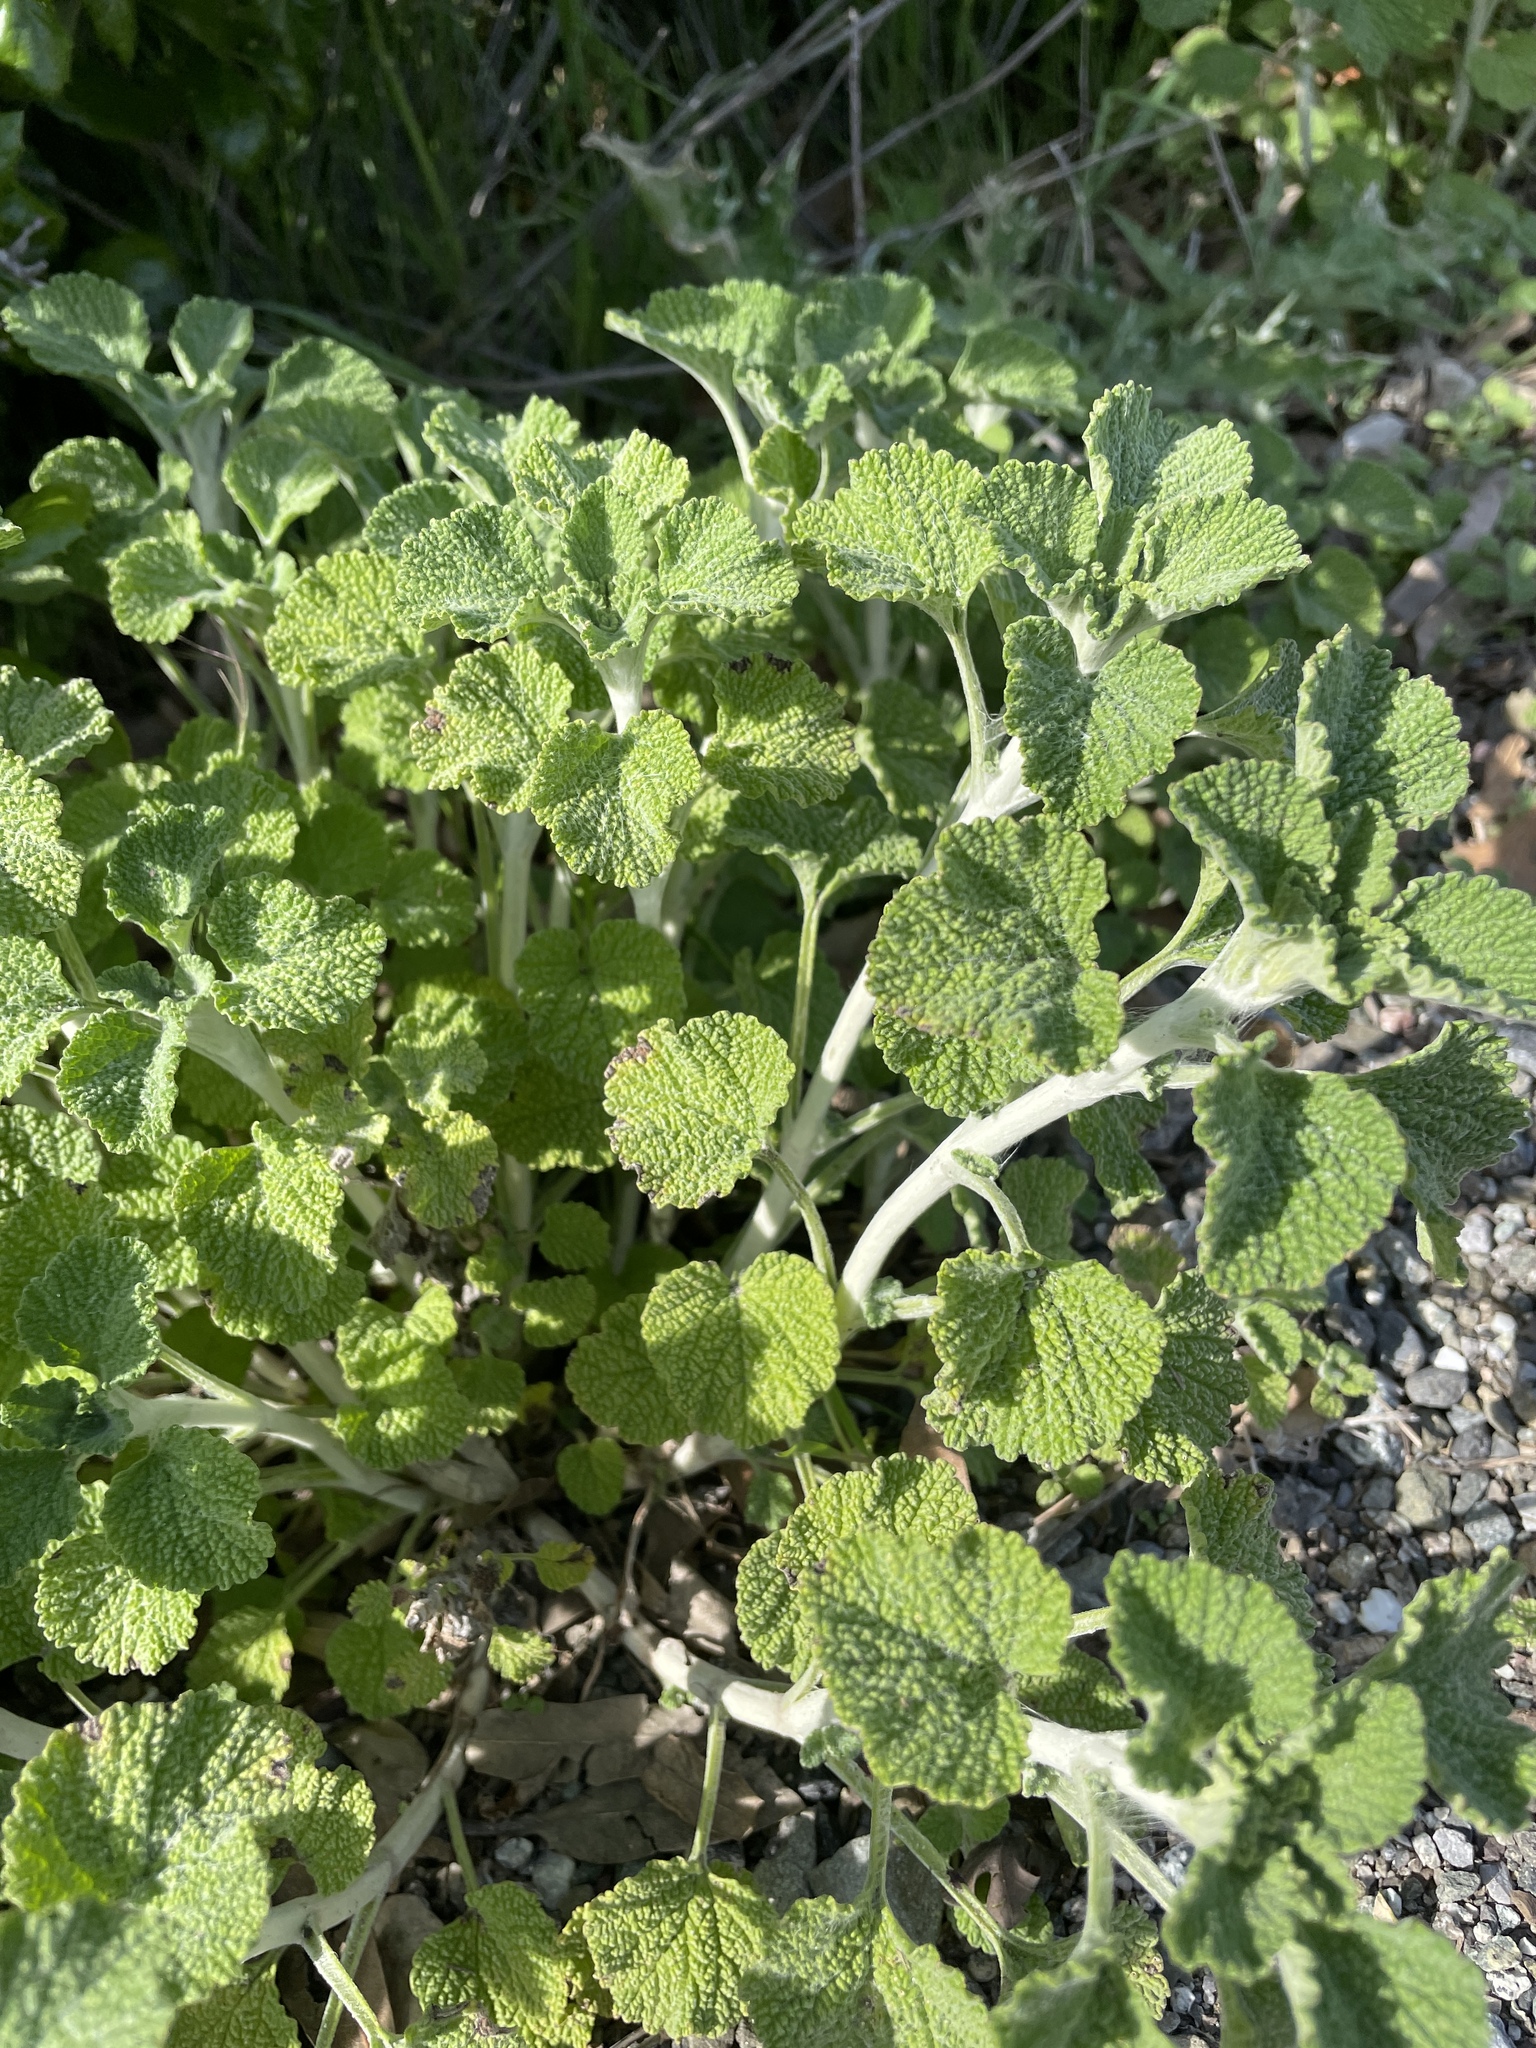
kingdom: Plantae
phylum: Tracheophyta
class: Magnoliopsida
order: Lamiales
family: Lamiaceae
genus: Marrubium
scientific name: Marrubium vulgare
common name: Horehound
